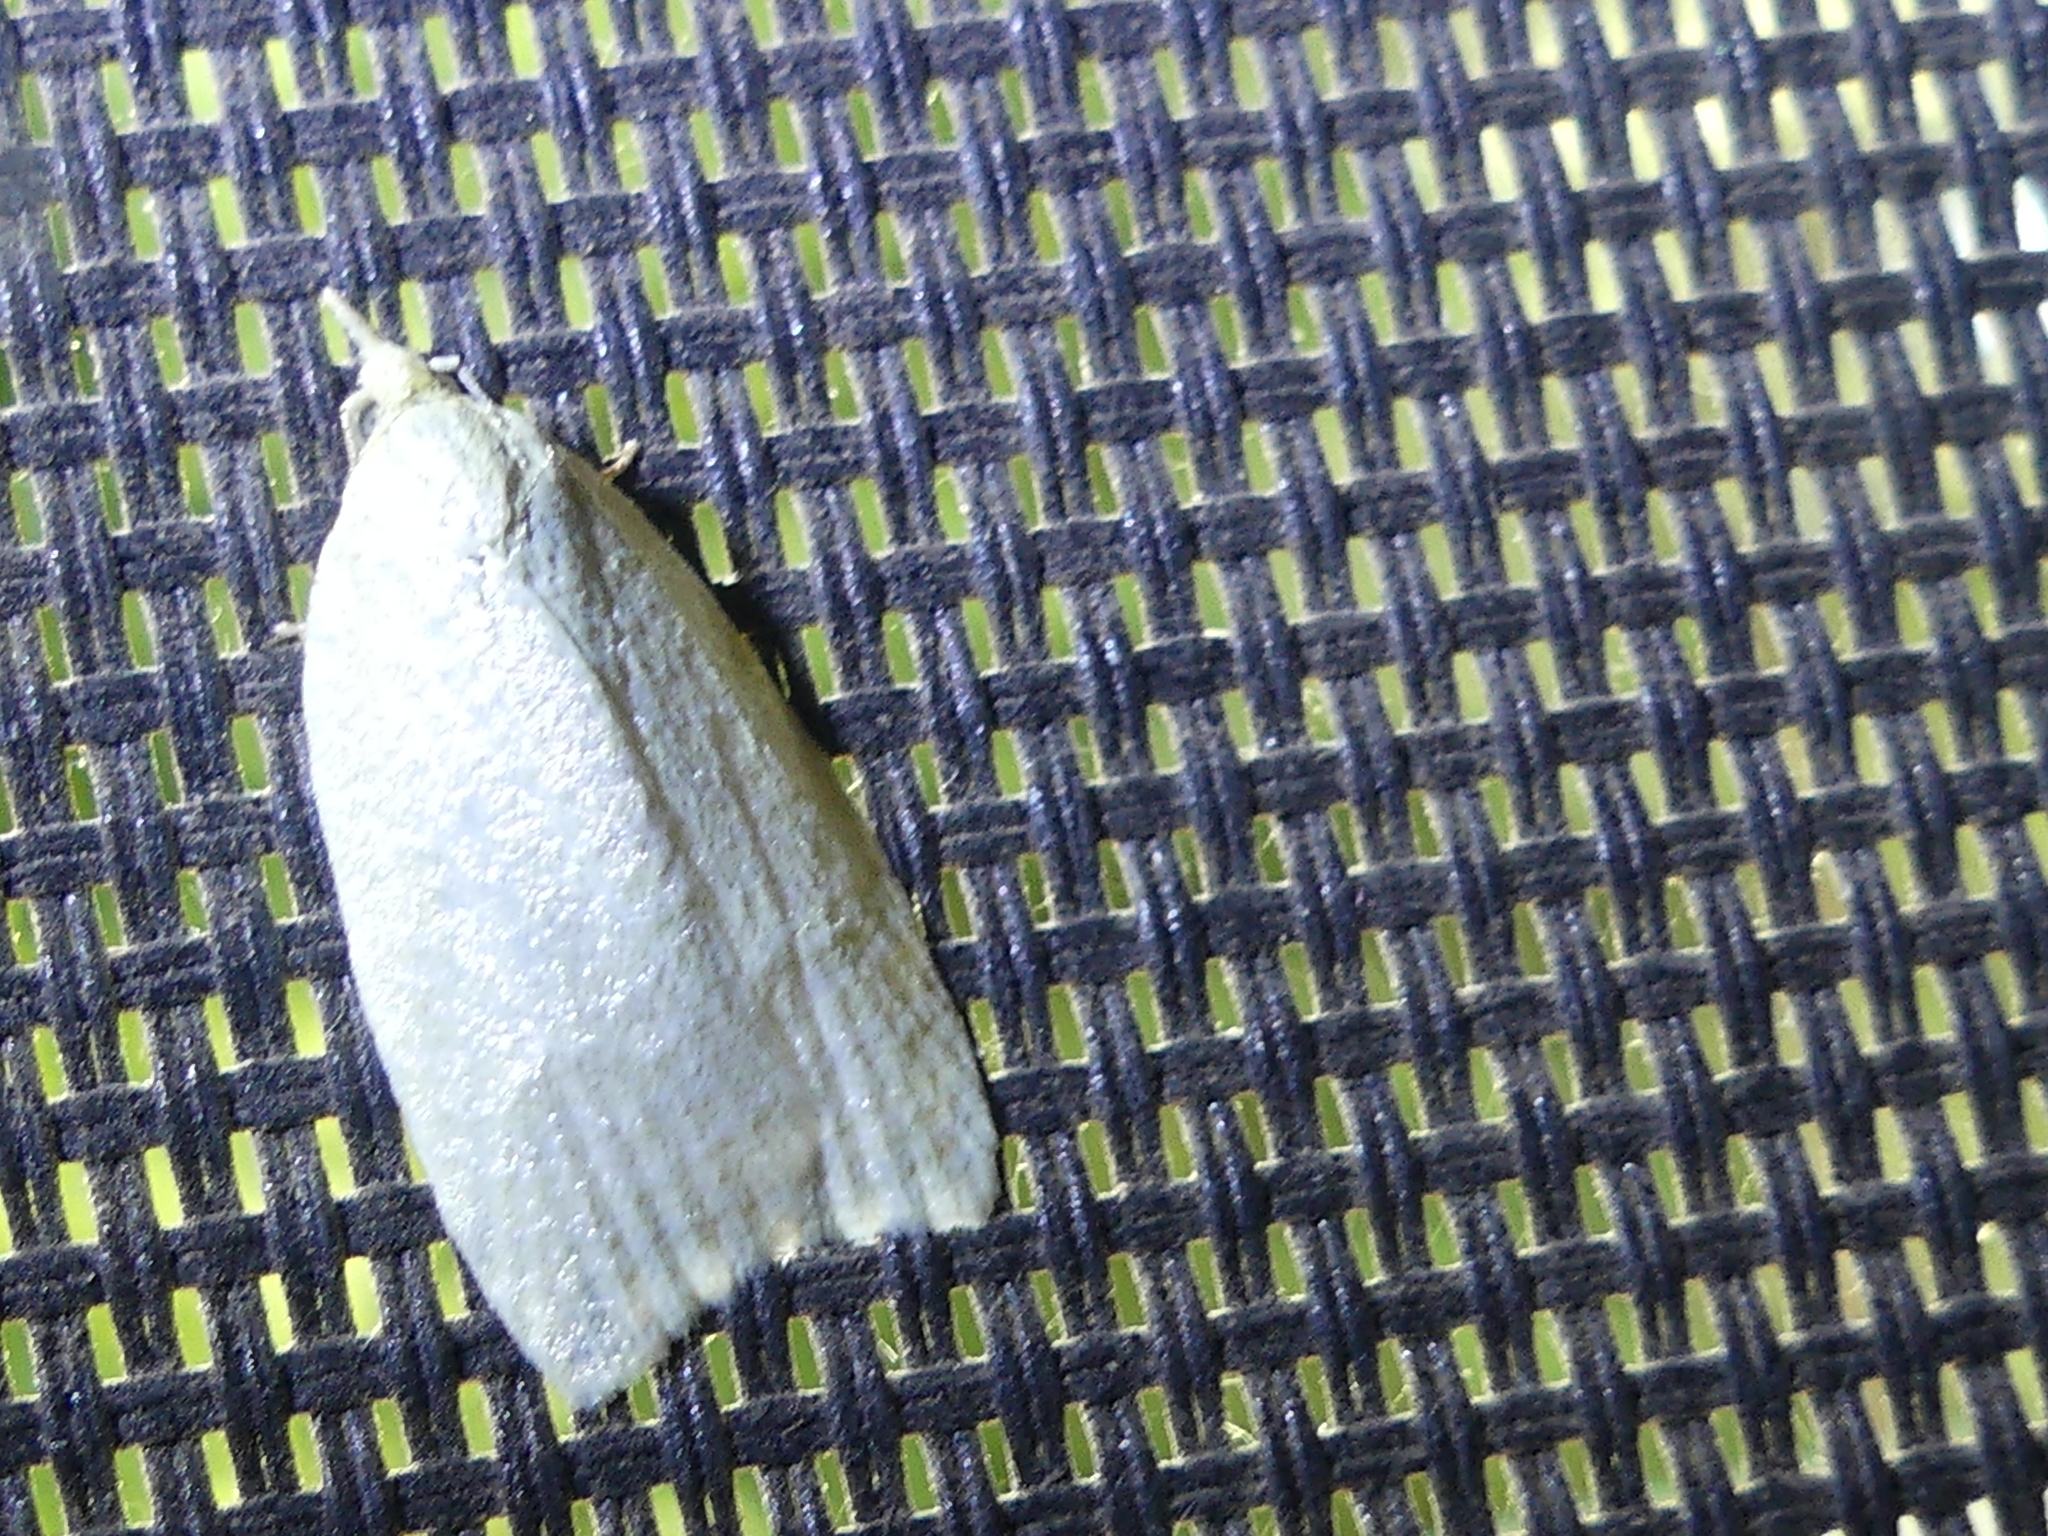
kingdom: Animalia
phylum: Arthropoda
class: Insecta
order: Lepidoptera
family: Tortricidae
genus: Cenopis
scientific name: Cenopis pettitana
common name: Maple-basswood leafroller moth
